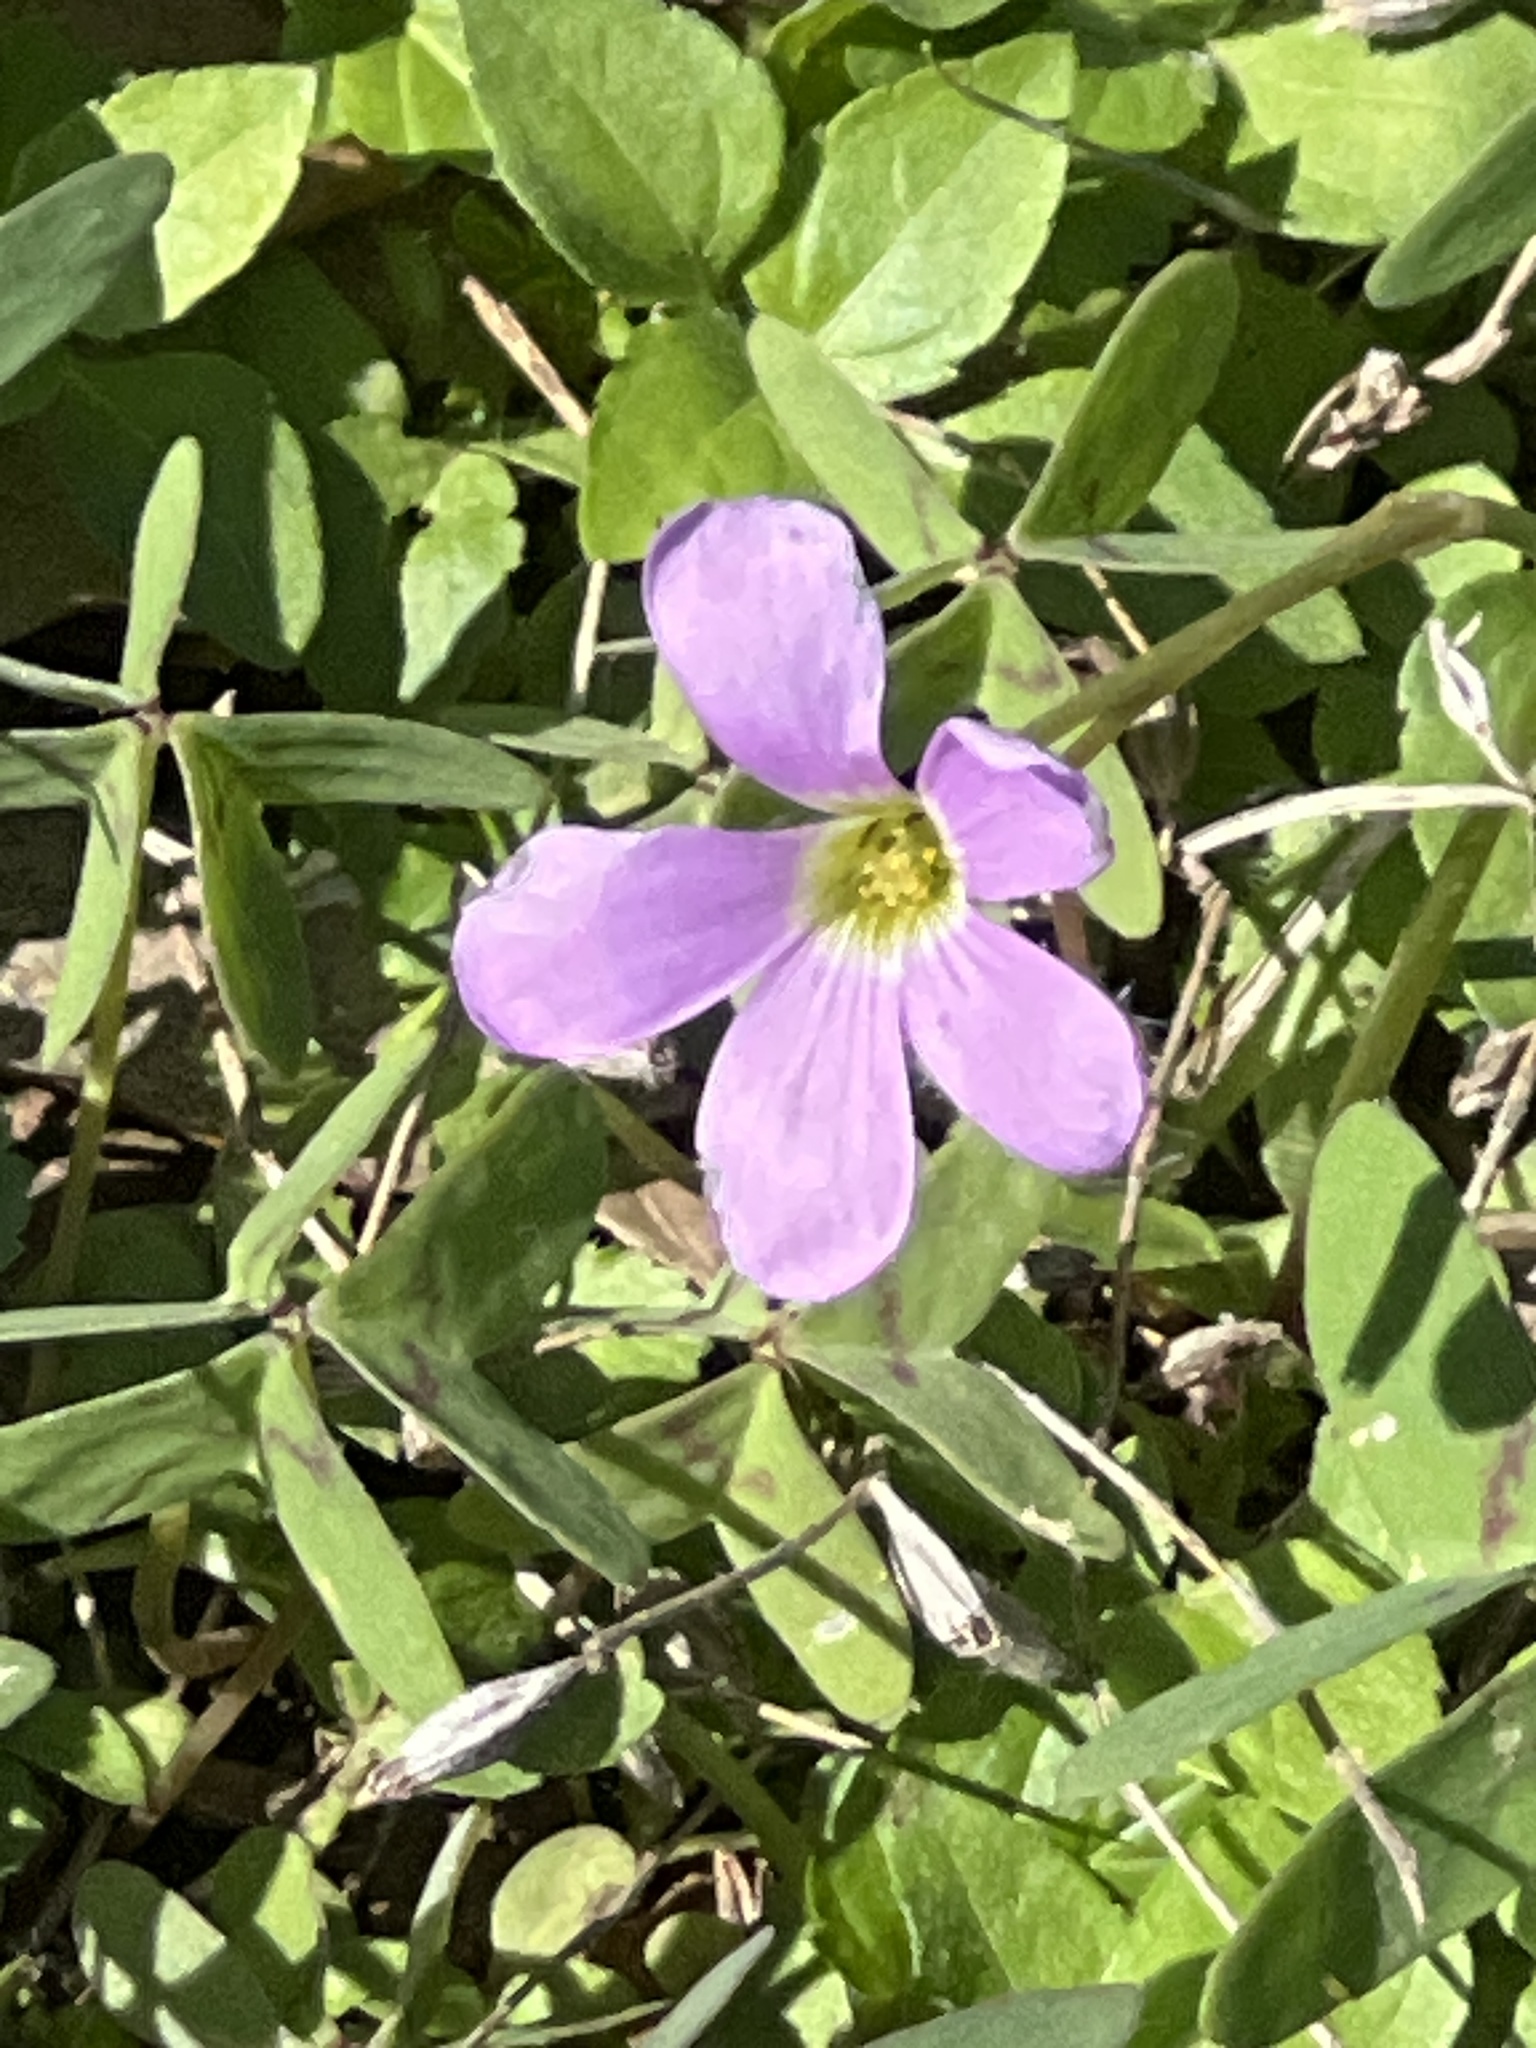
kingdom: Plantae
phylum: Tracheophyta
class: Magnoliopsida
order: Oxalidales
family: Oxalidaceae
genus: Oxalis
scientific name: Oxalis drummondii
